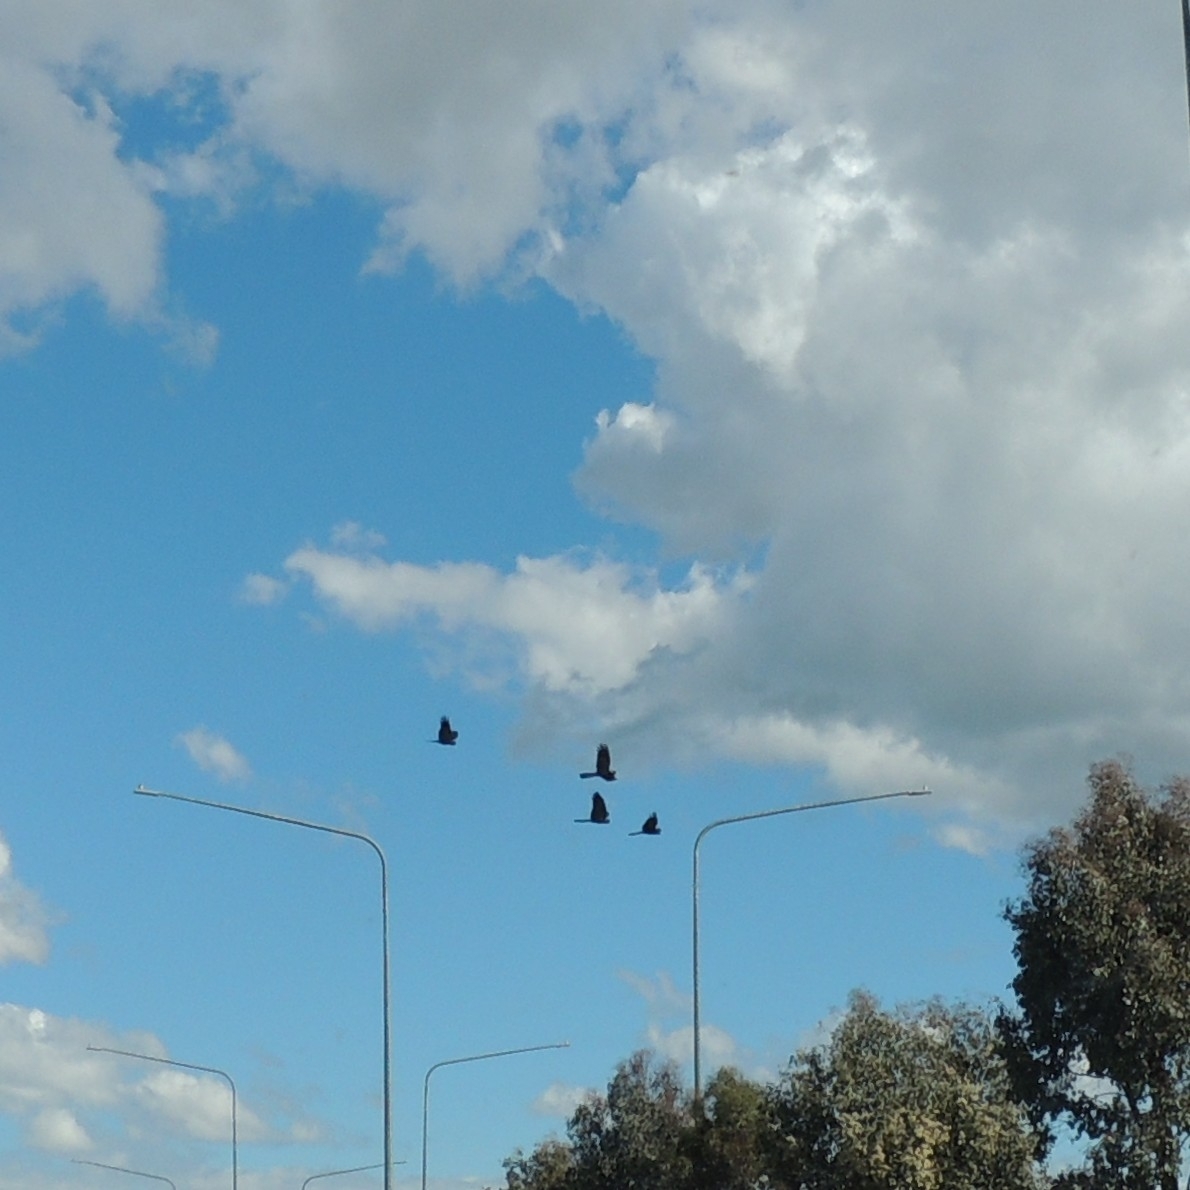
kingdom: Animalia
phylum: Chordata
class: Aves
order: Psittaciformes
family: Cacatuidae
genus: Zanda
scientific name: Zanda funerea
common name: Yellow-tailed black-cockatoo
